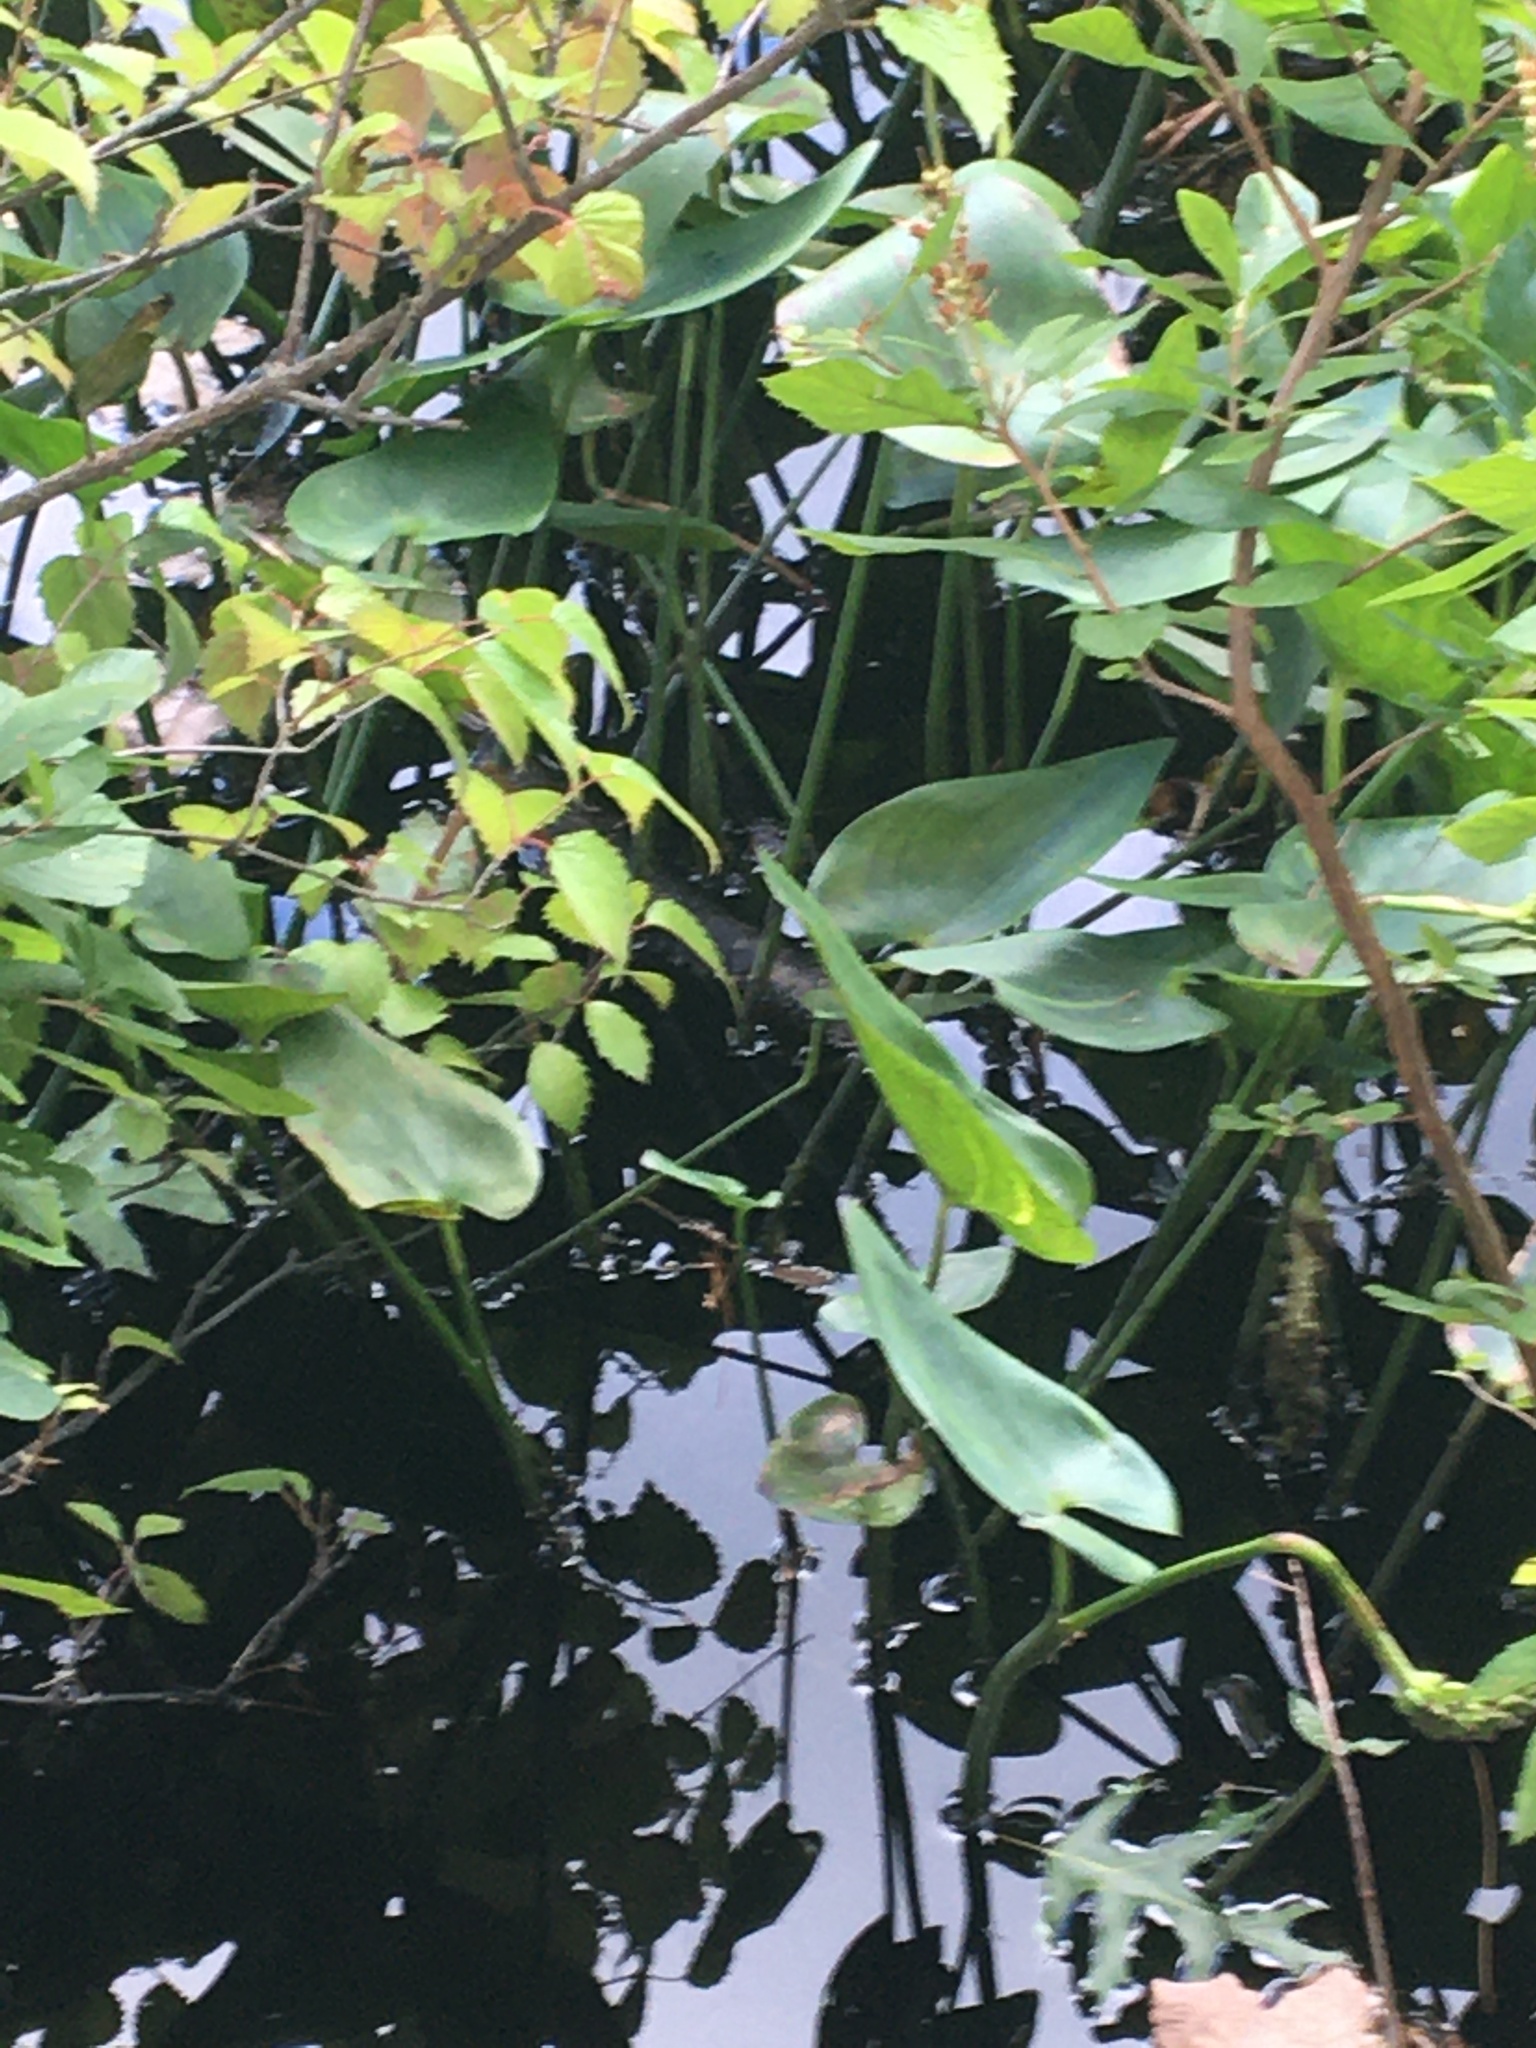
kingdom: Plantae
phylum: Tracheophyta
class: Liliopsida
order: Commelinales
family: Pontederiaceae
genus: Pontederia
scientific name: Pontederia cordata
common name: Pickerelweed
